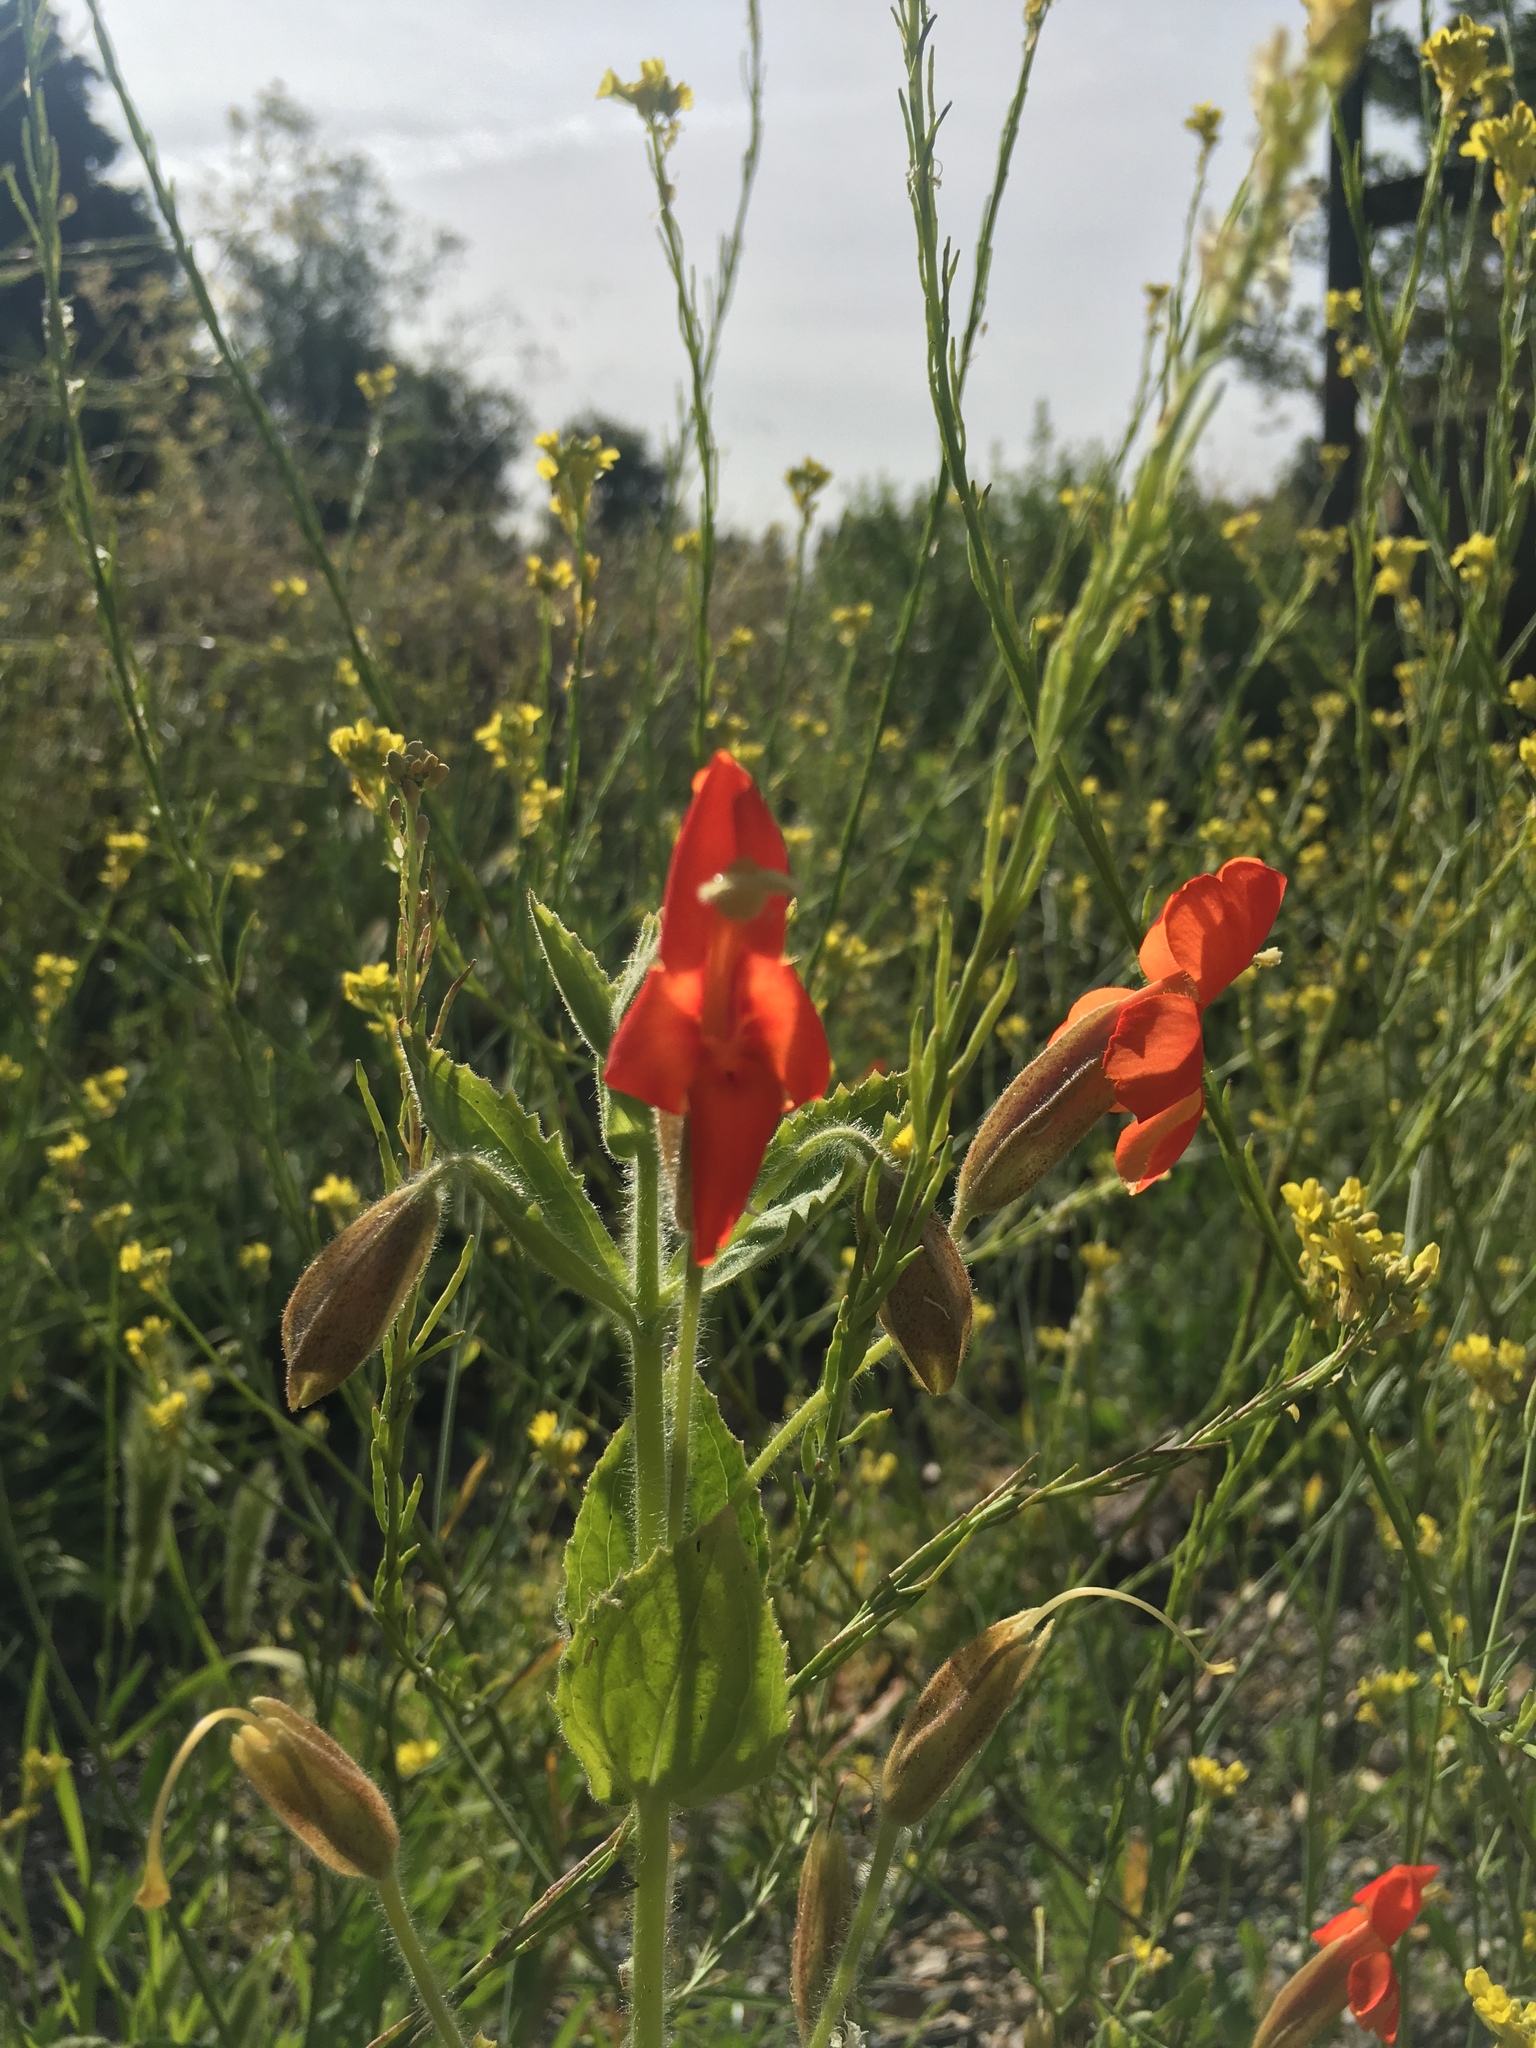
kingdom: Plantae
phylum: Tracheophyta
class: Magnoliopsida
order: Lamiales
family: Phrymaceae
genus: Erythranthe
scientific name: Erythranthe cardinalis
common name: Scarlet monkey-flower
